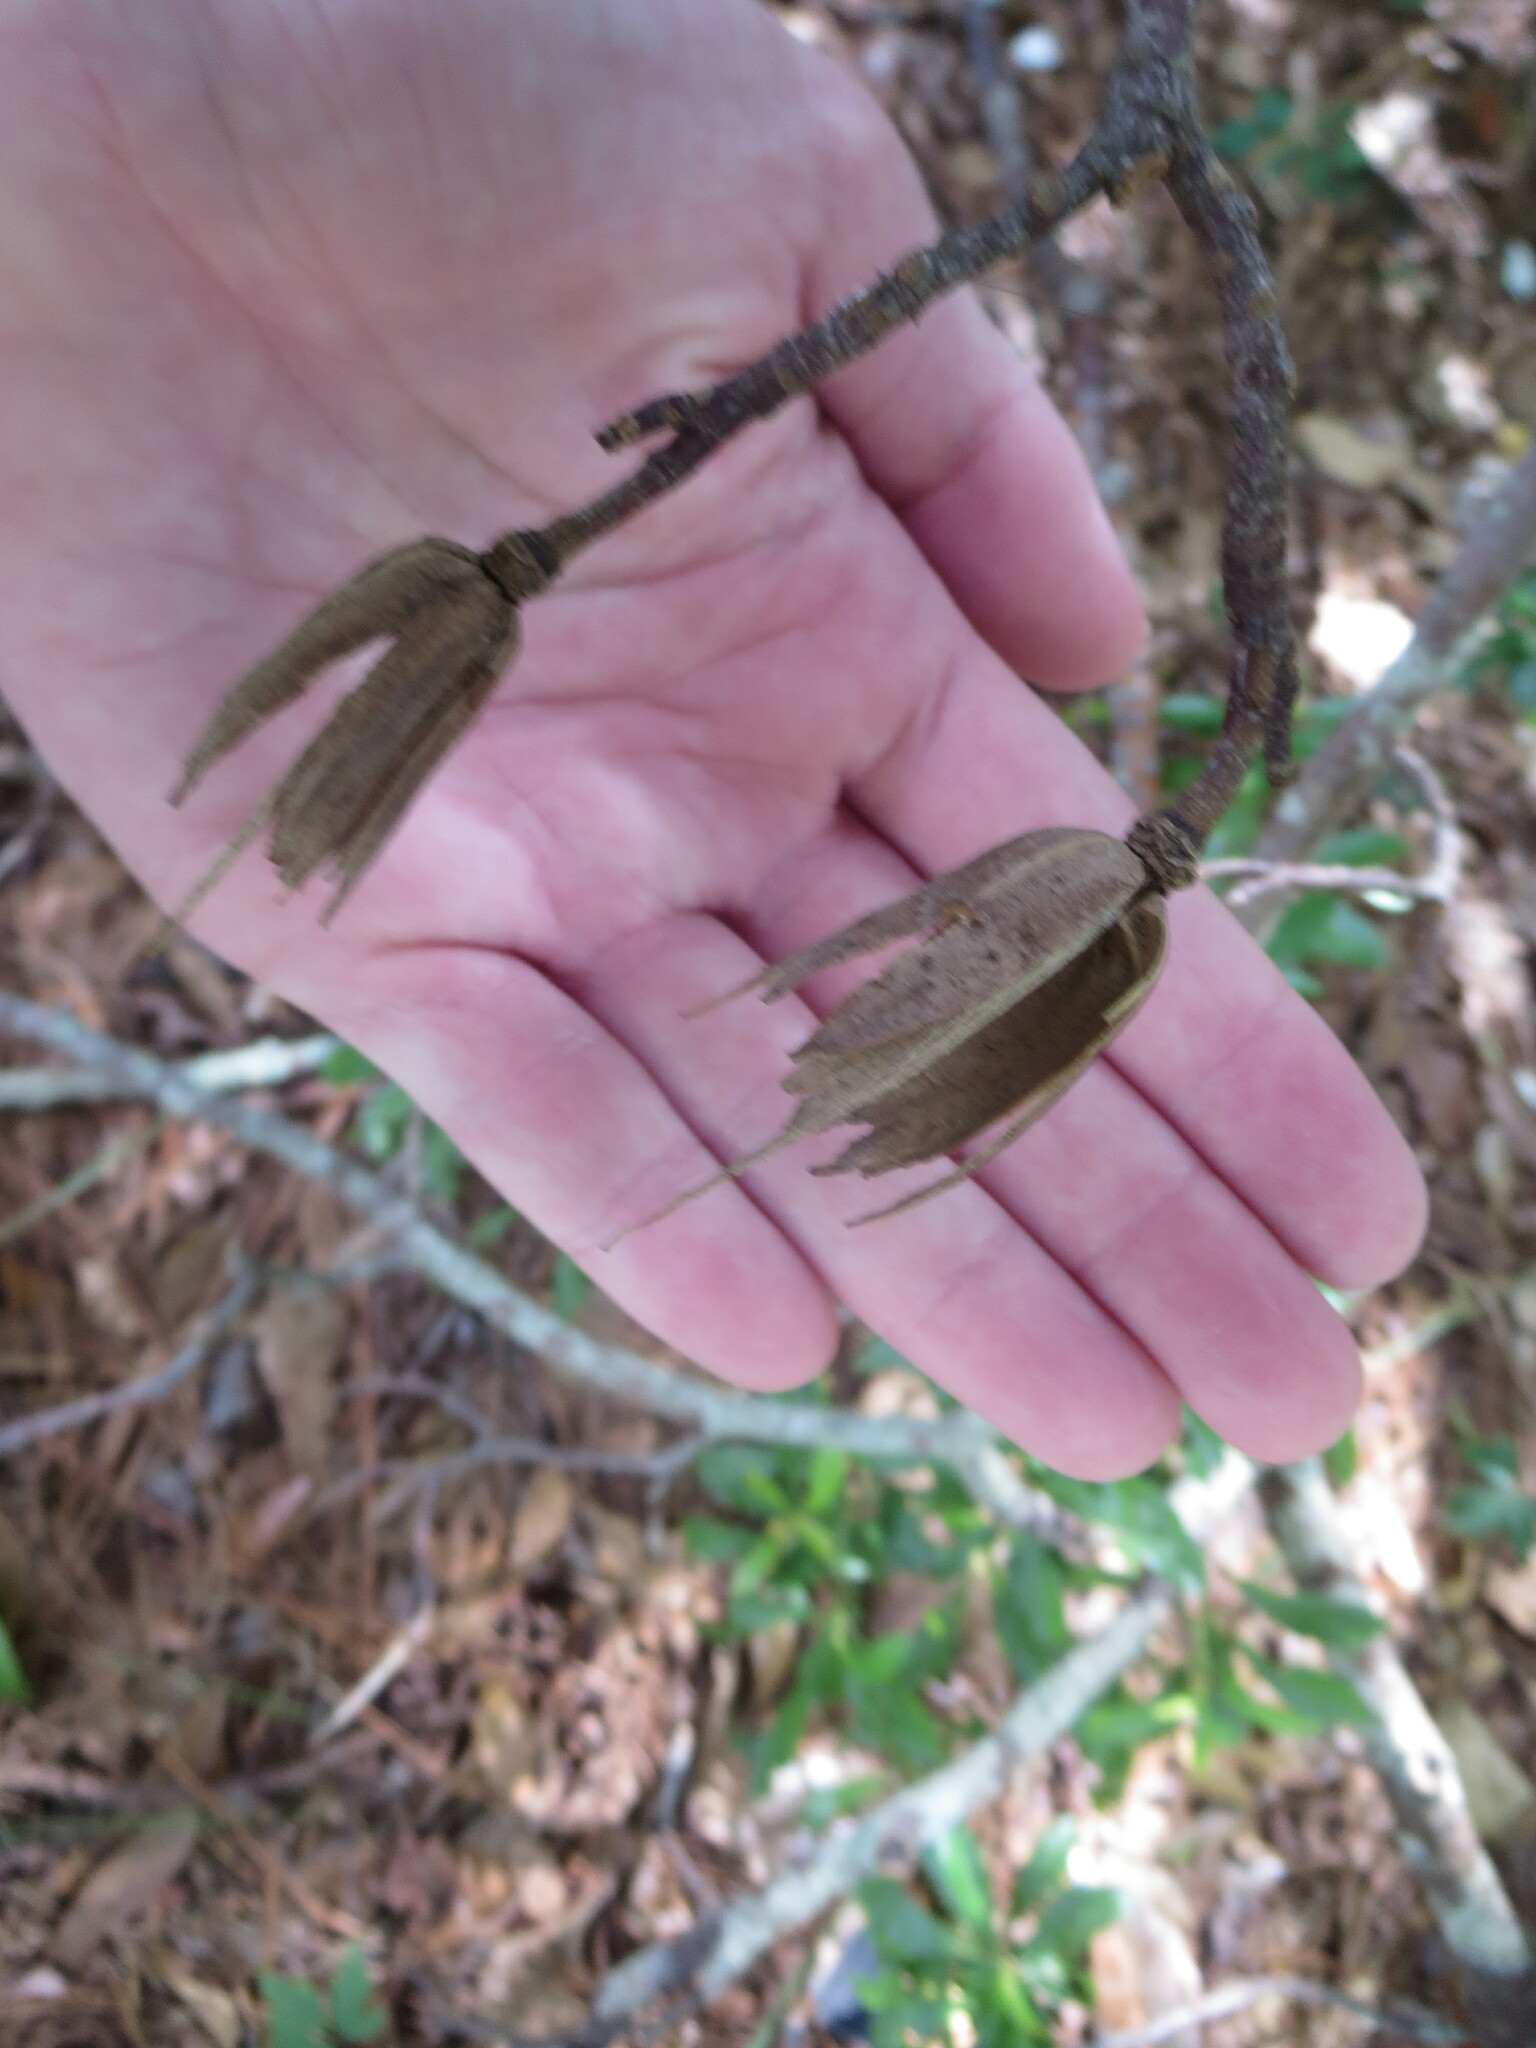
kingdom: Plantae
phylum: Tracheophyta
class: Magnoliopsida
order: Magnoliales
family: Magnoliaceae
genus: Liriodendron
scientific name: Liriodendron tulipifera
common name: Tulip tree
